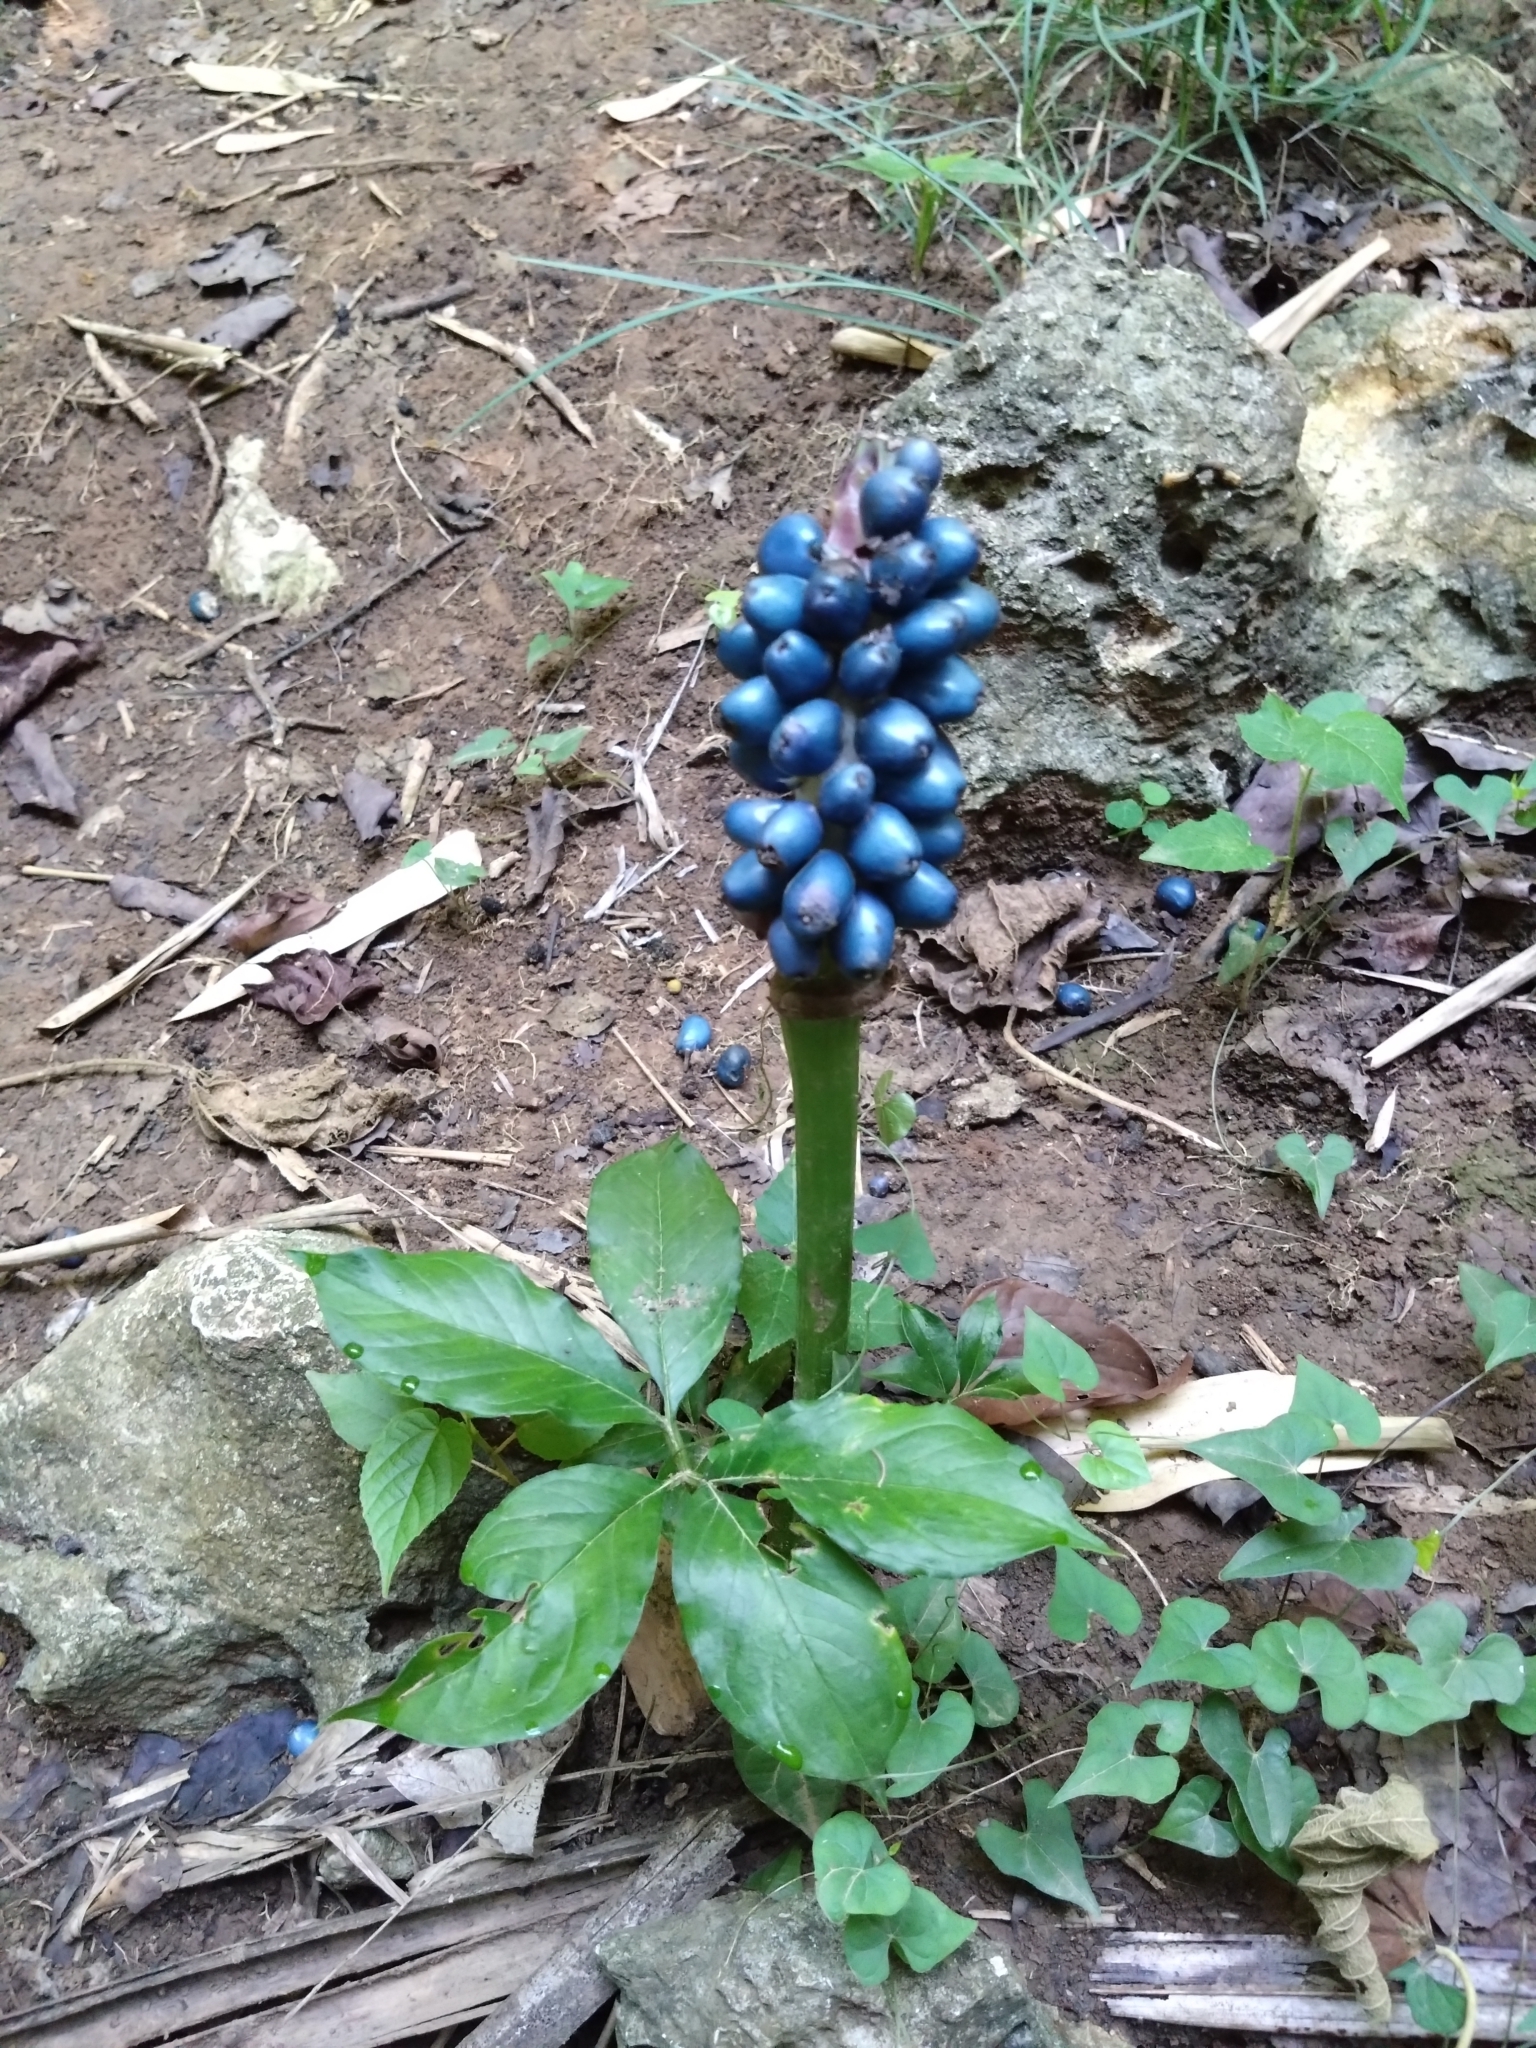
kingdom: Plantae
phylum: Tracheophyta
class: Liliopsida
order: Alismatales
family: Araceae
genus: Amorphophallus
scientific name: Amorphophallus henryi
